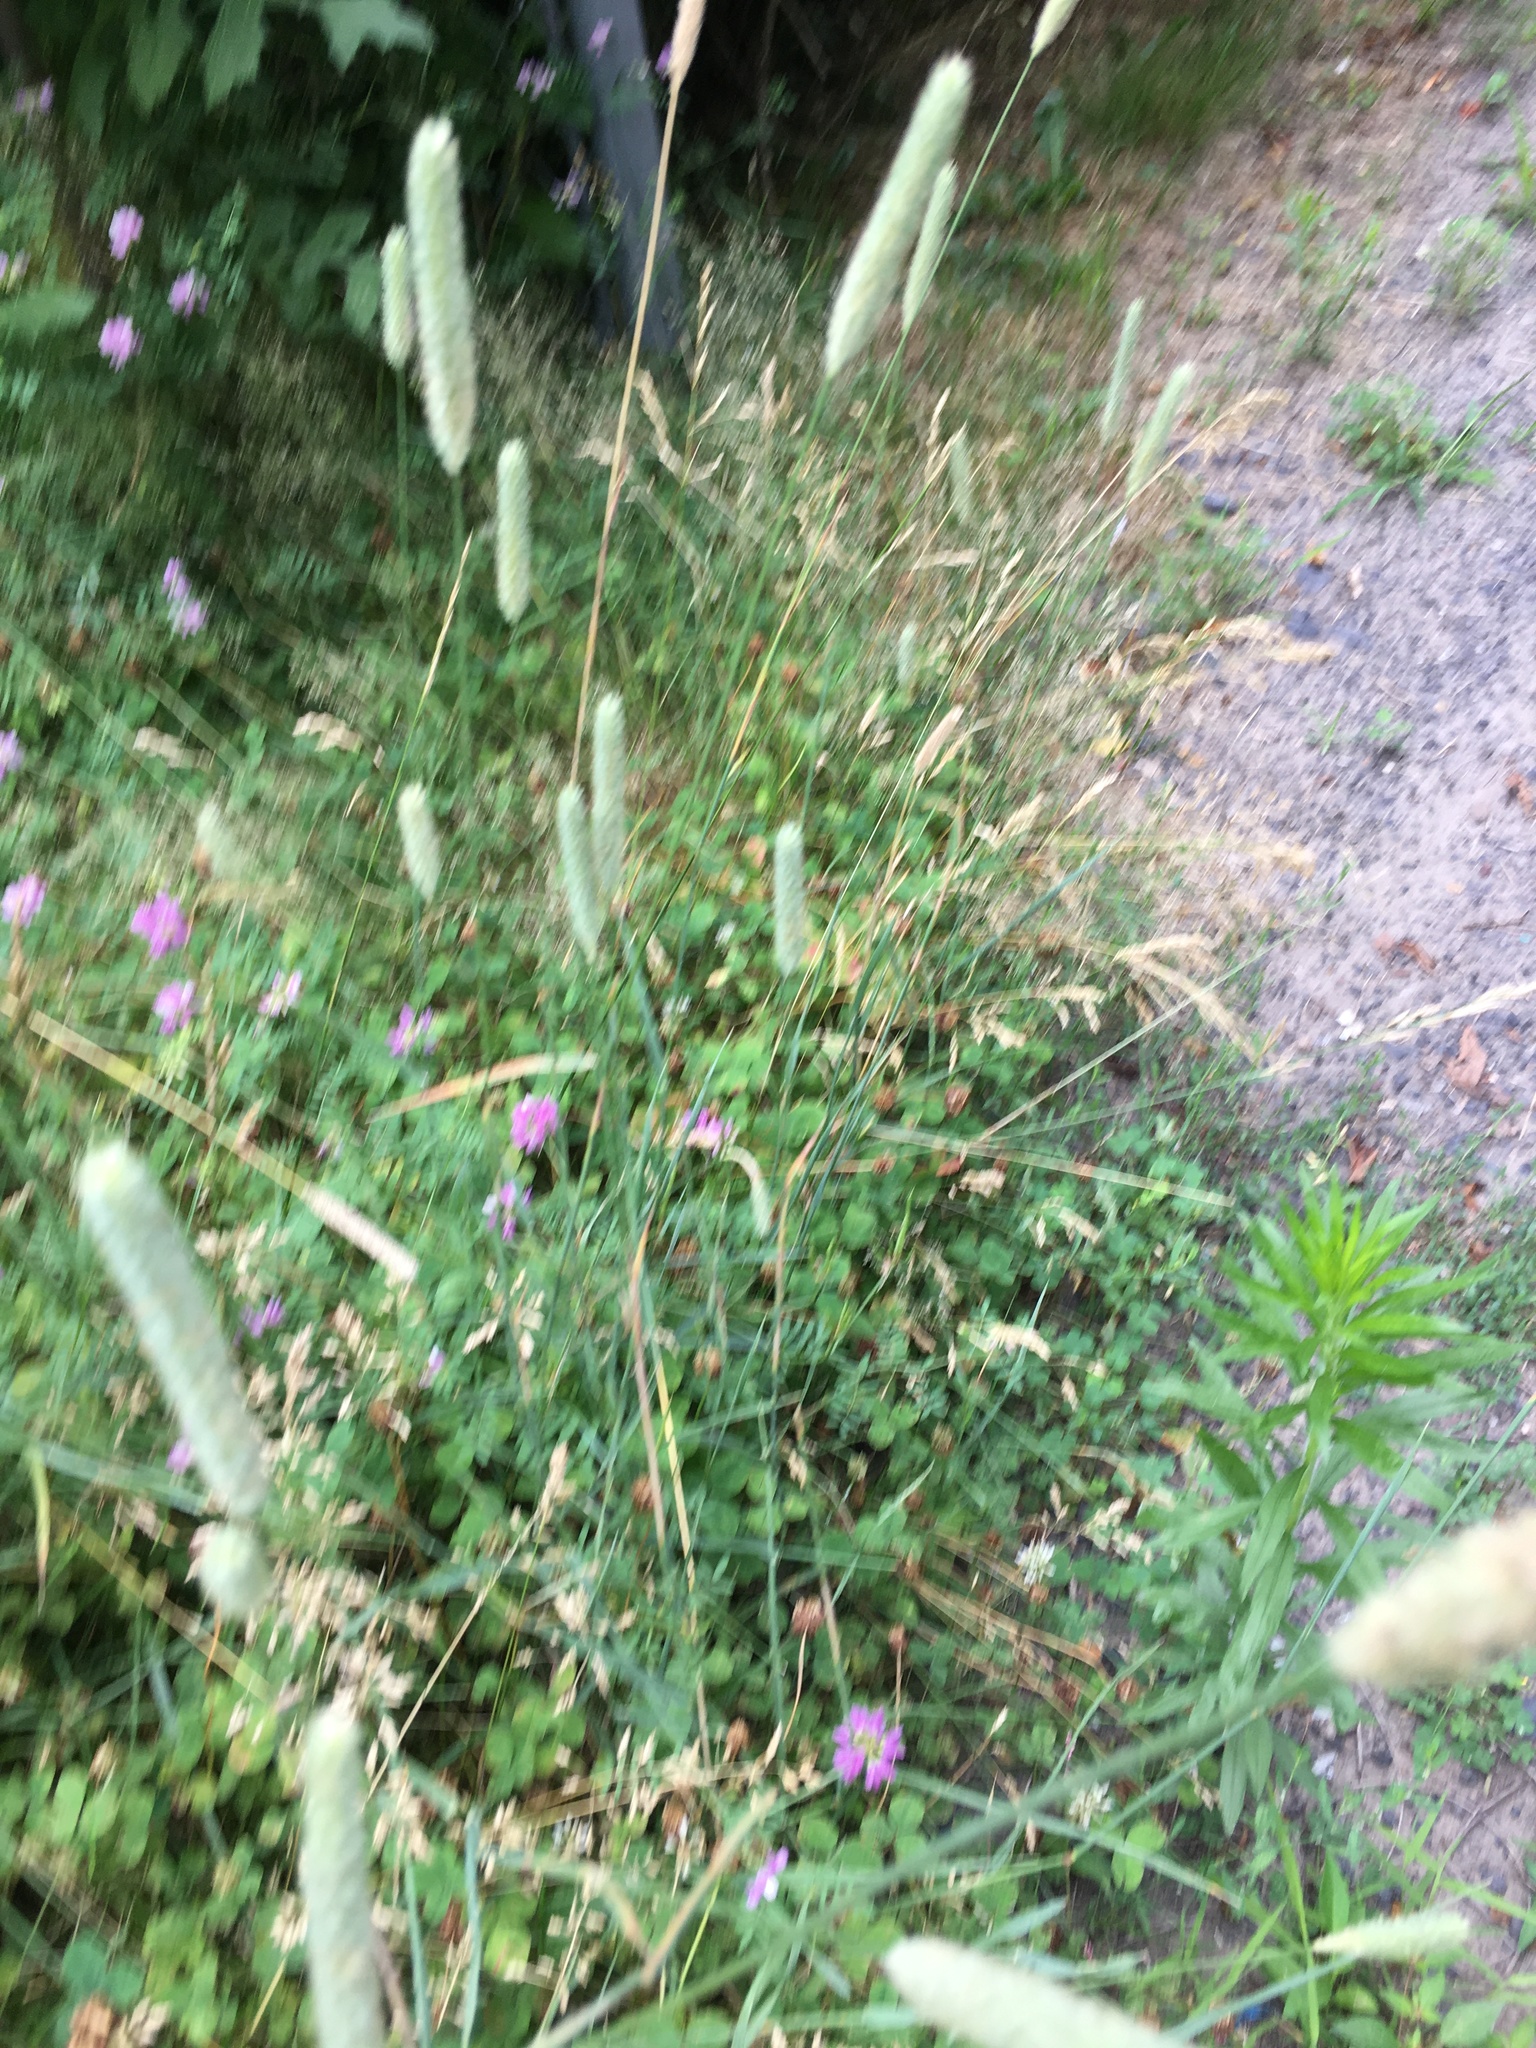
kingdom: Plantae
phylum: Tracheophyta
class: Liliopsida
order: Poales
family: Poaceae
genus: Phleum
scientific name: Phleum pratense
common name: Timothy grass
